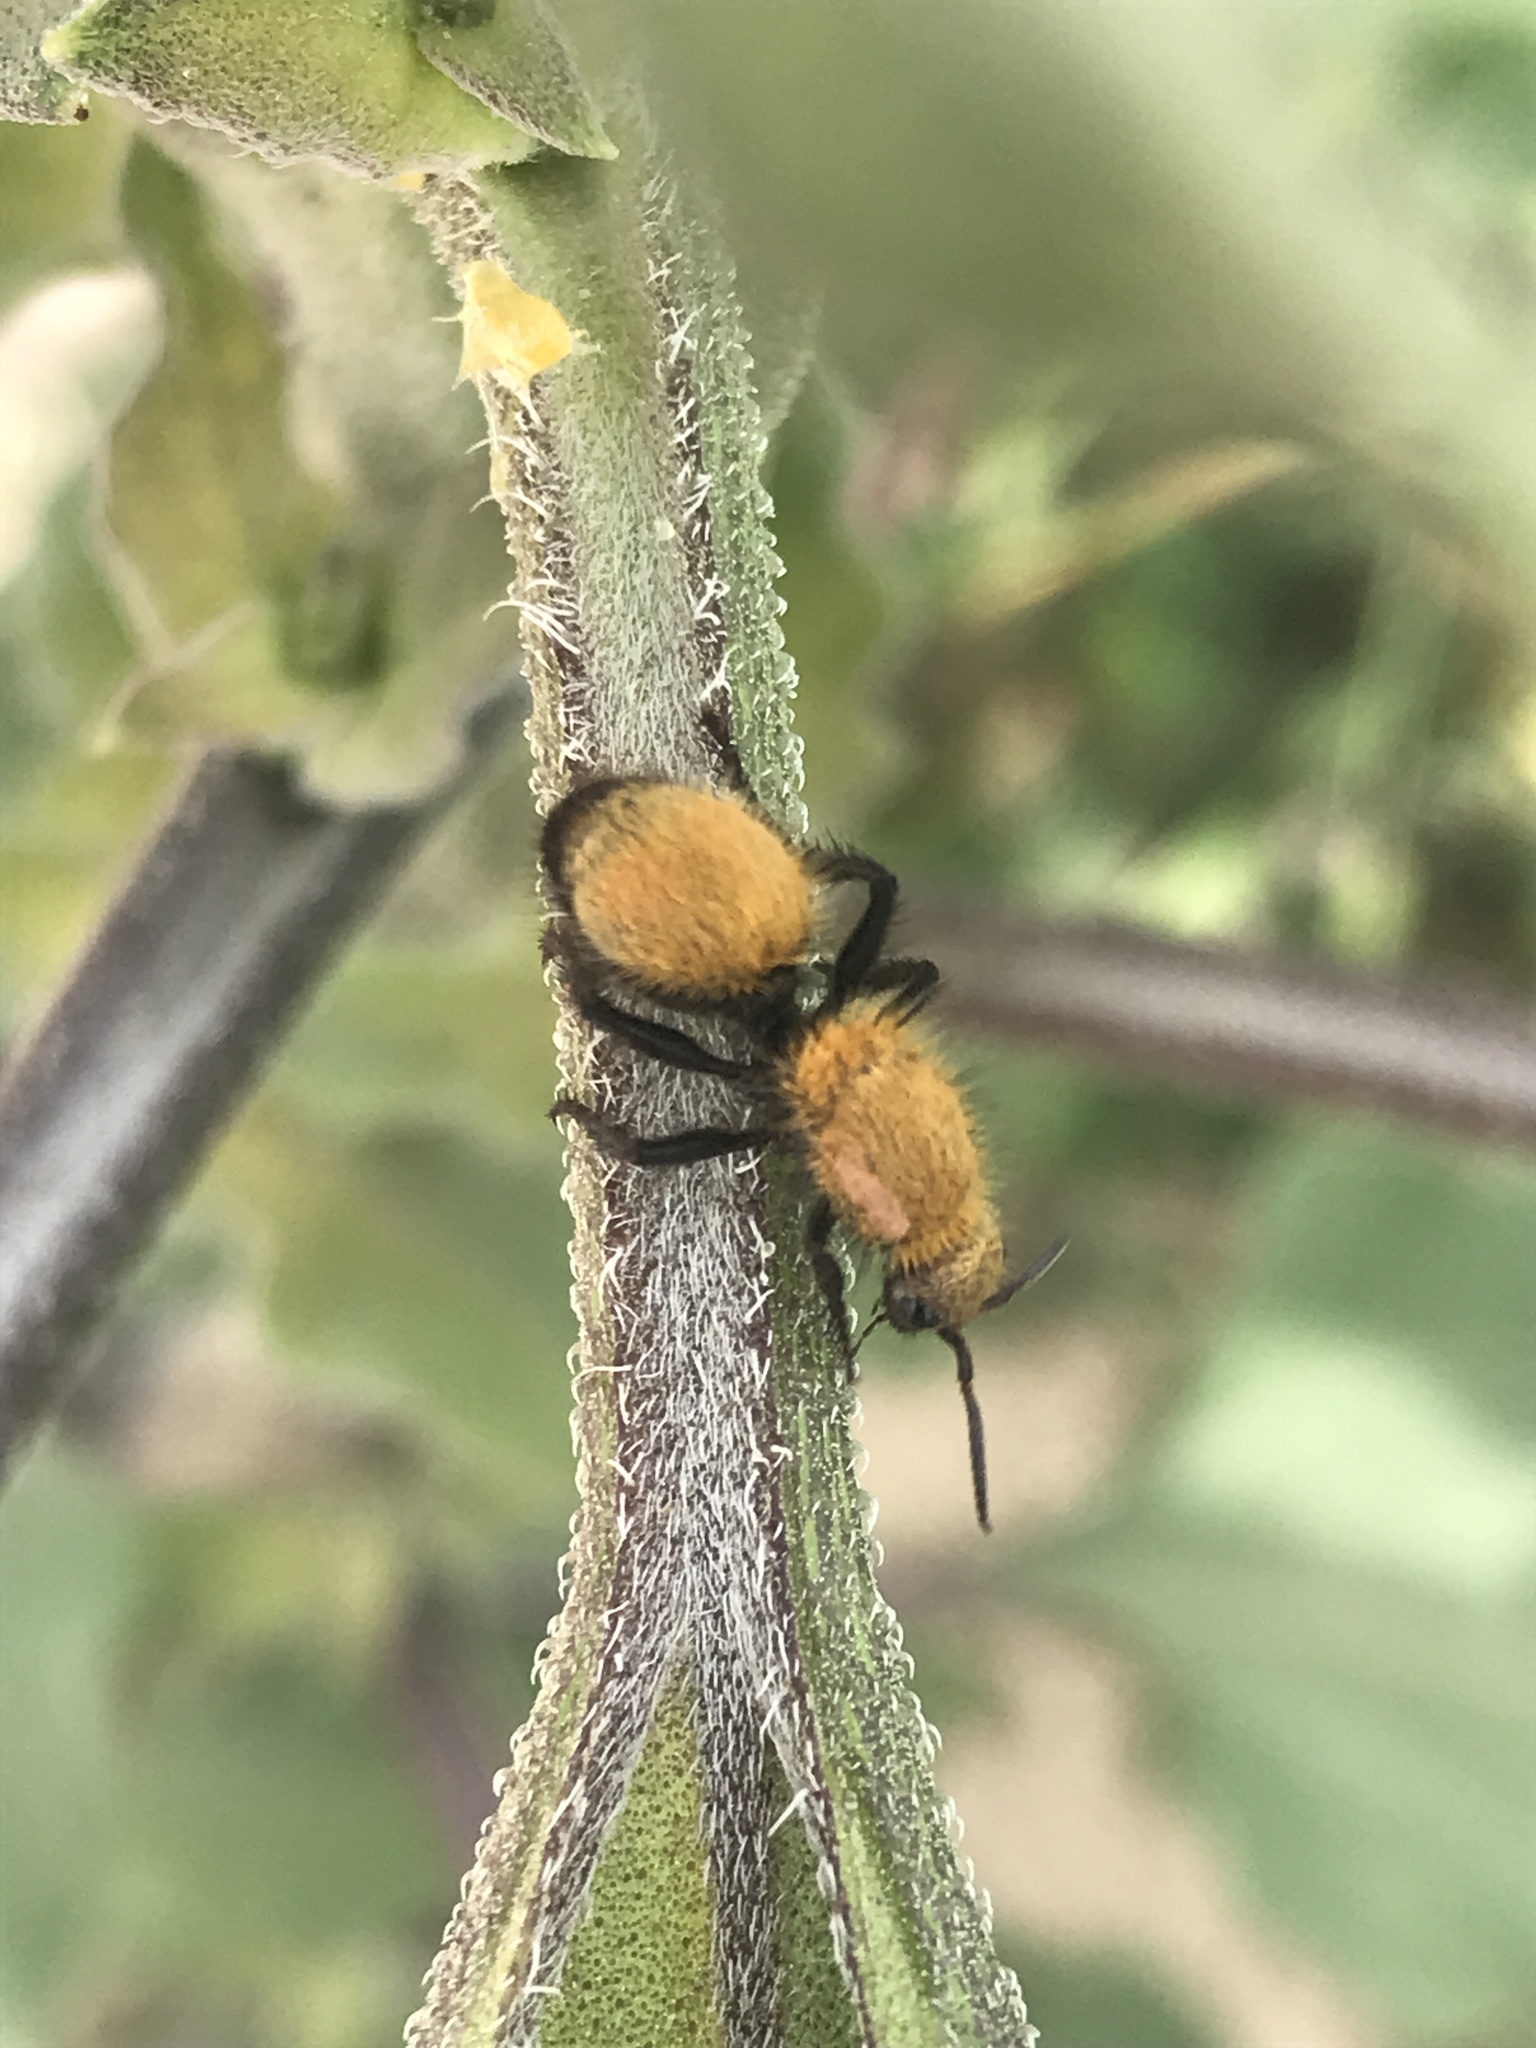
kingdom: Animalia
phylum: Arthropoda
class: Insecta
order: Hymenoptera
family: Mutillidae
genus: Dasymutilla
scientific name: Dasymutilla
